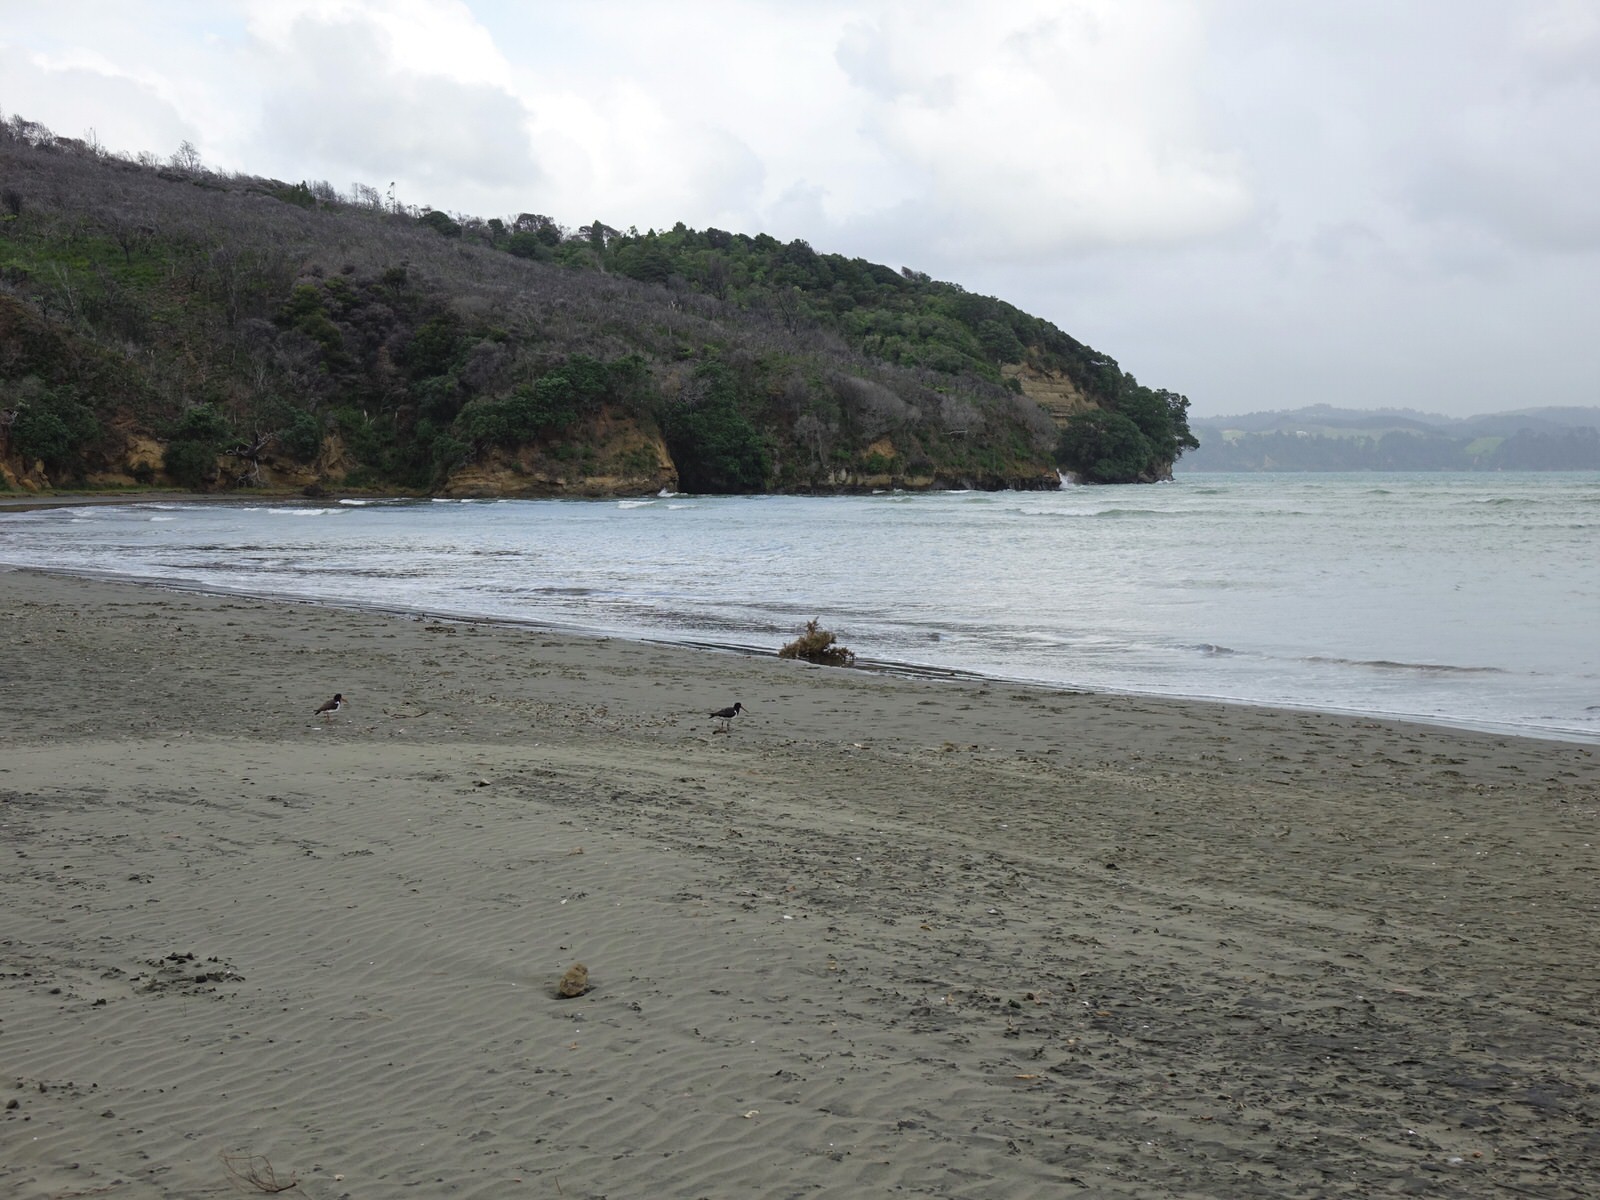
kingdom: Animalia
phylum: Chordata
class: Aves
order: Charadriiformes
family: Haematopodidae
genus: Haematopus
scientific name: Haematopus finschi
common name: South island oystercatcher
